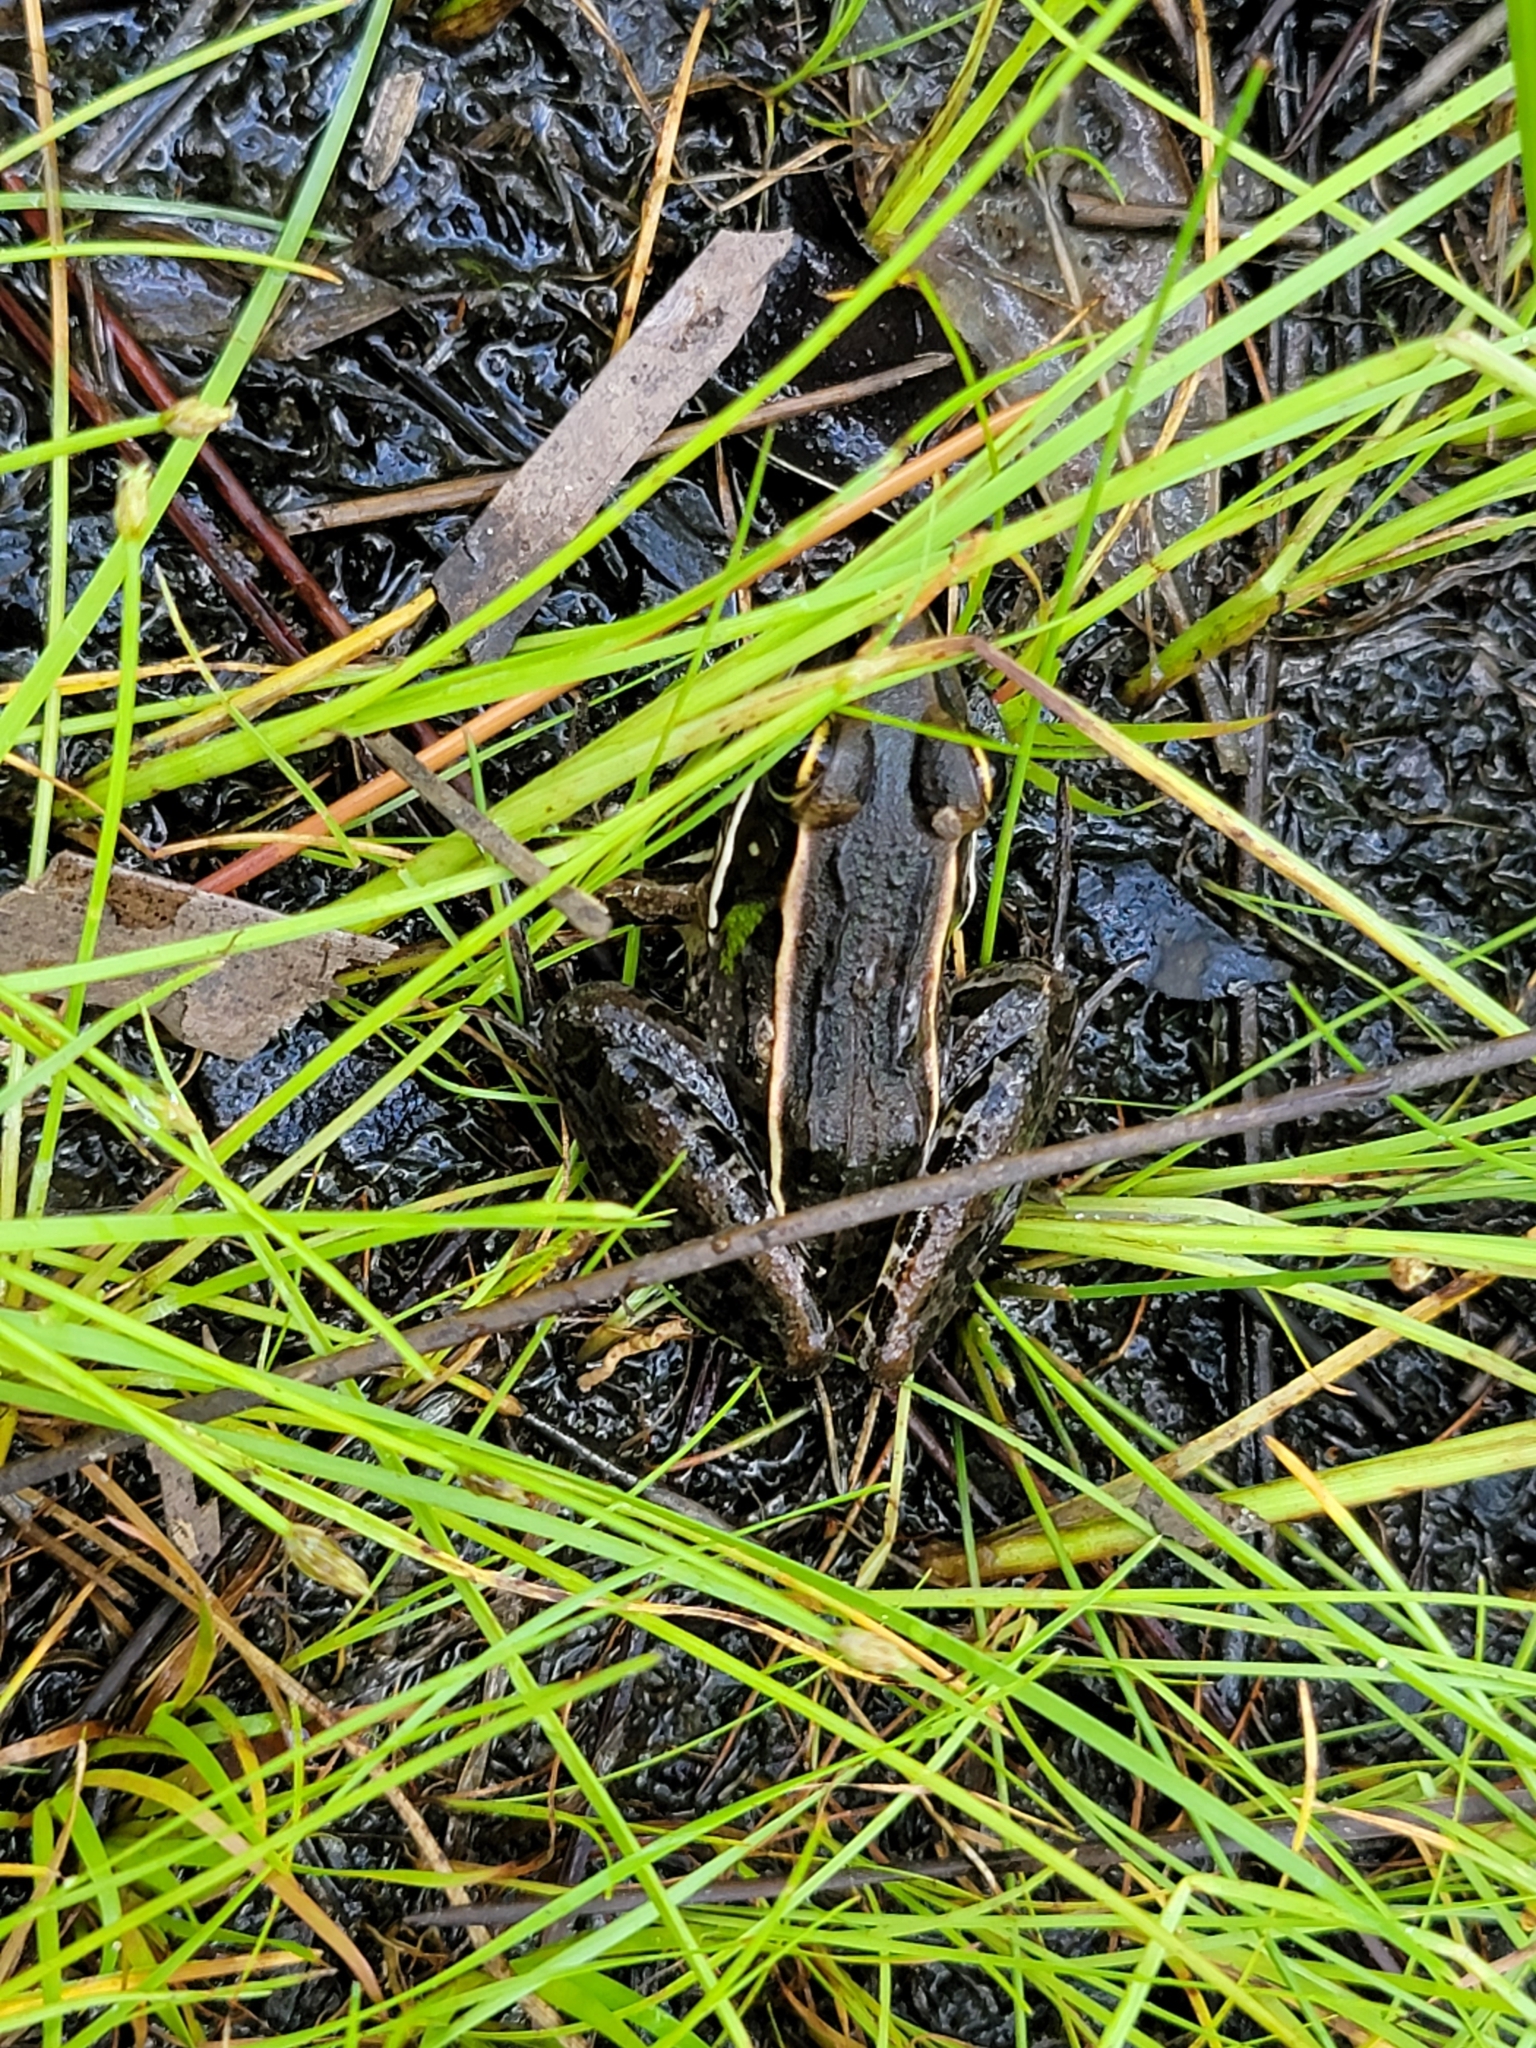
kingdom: Animalia
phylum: Chordata
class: Amphibia
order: Anura
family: Ranidae
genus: Lithobates
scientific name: Lithobates sphenocephalus
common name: Southern leopard frog
